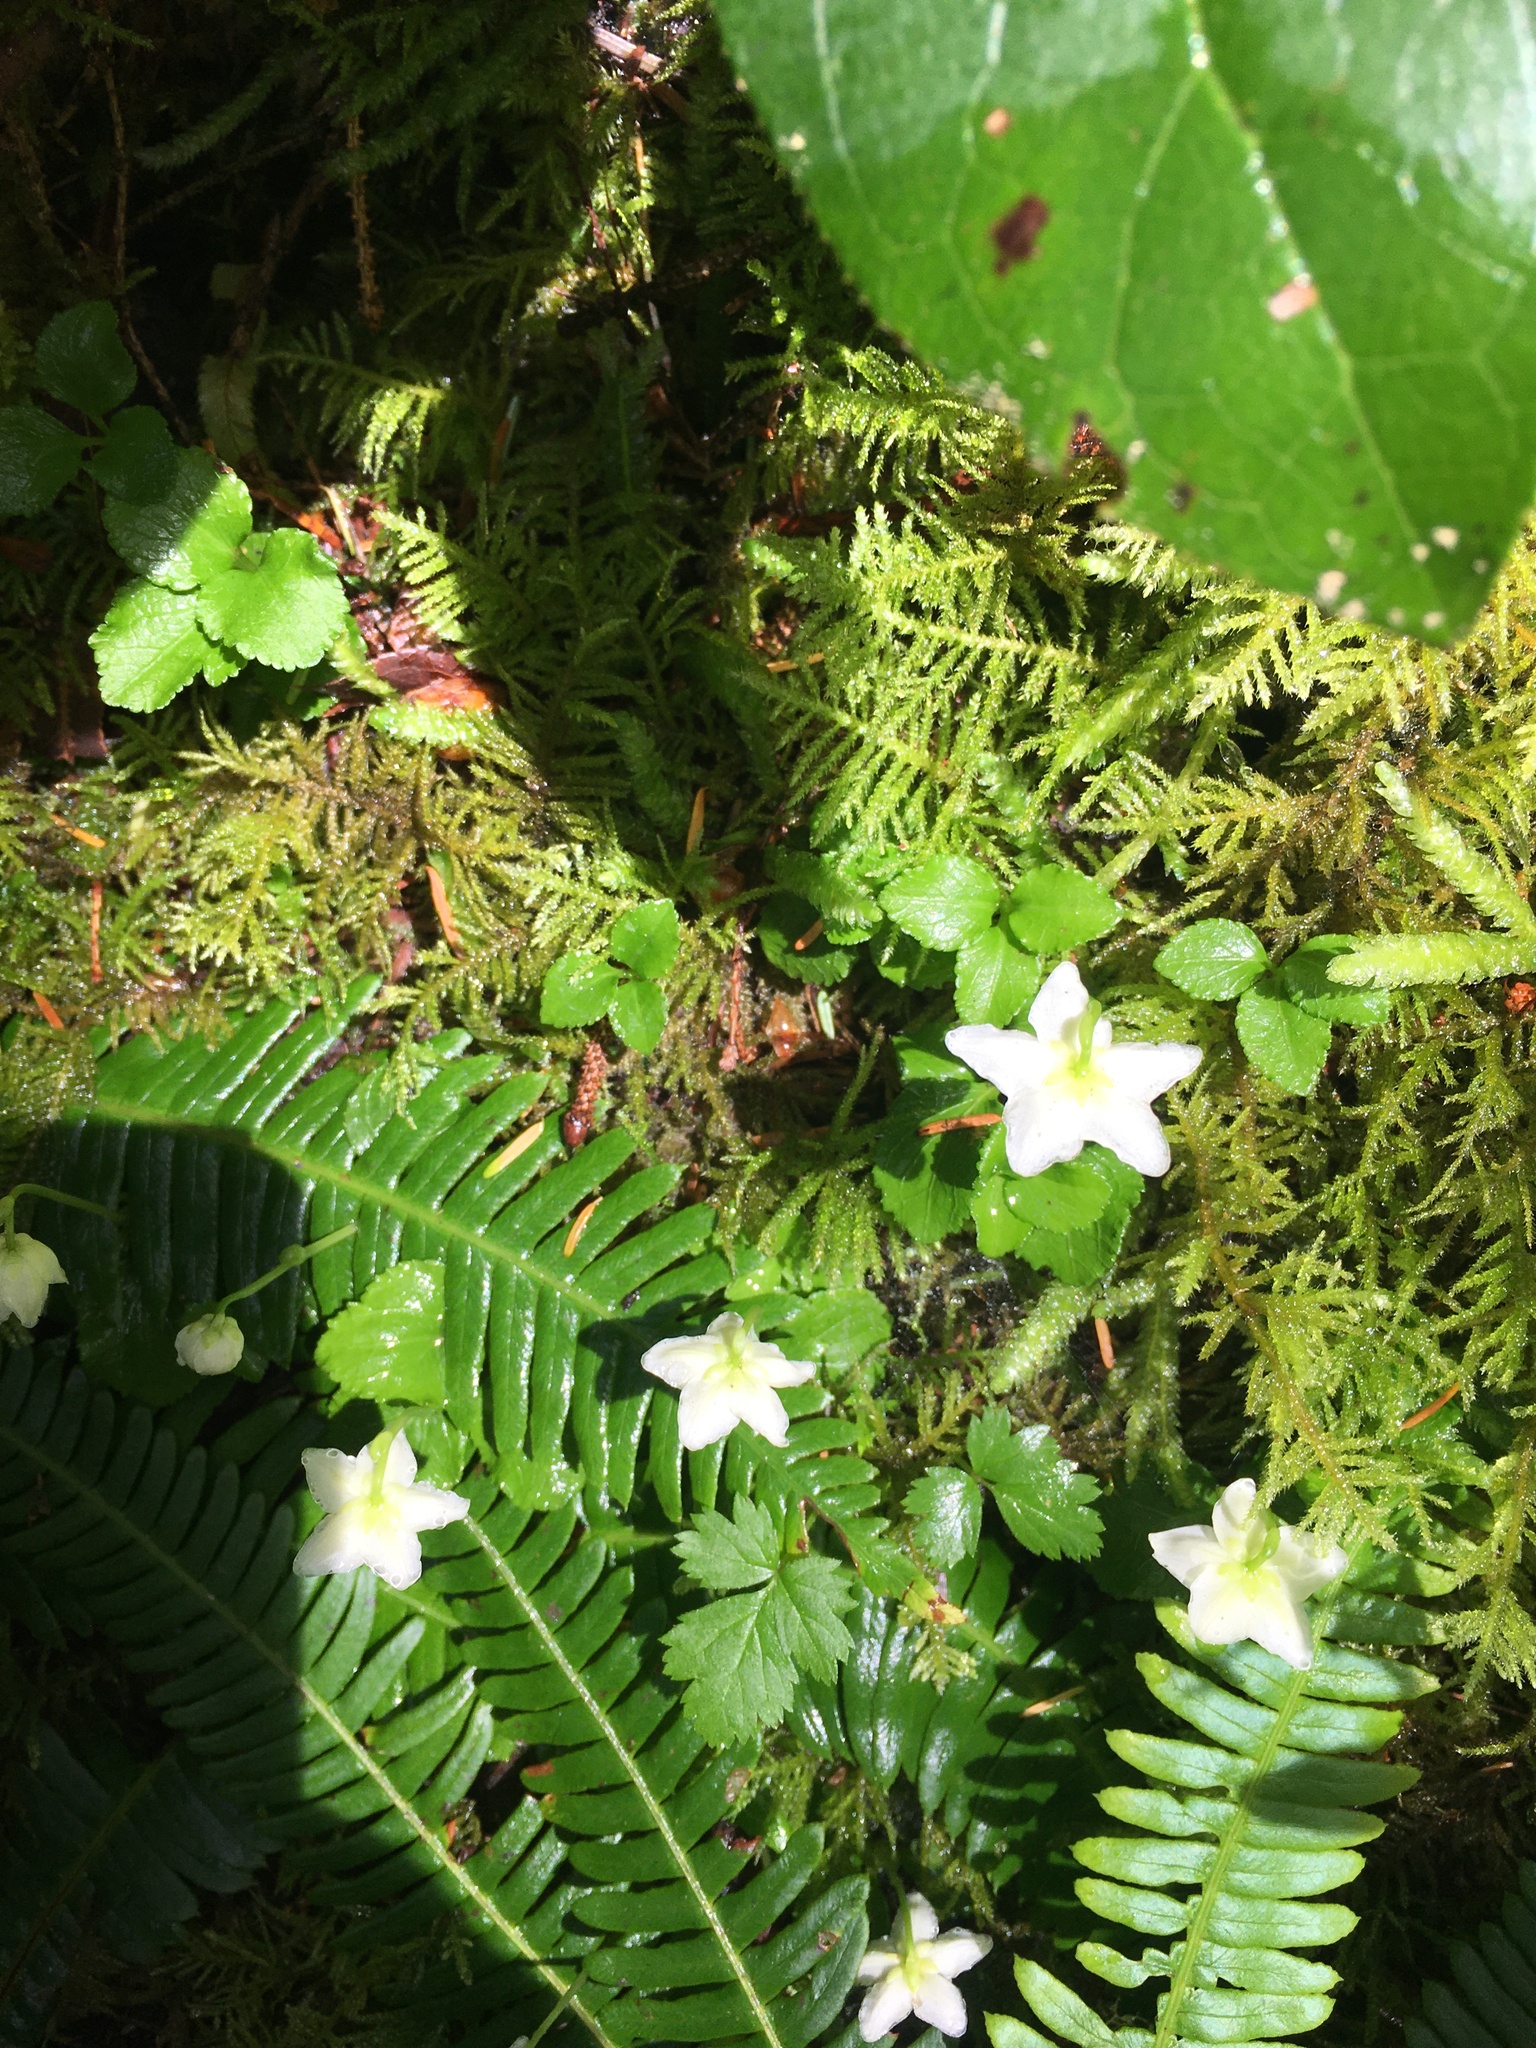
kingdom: Plantae
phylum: Tracheophyta
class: Magnoliopsida
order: Ericales
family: Ericaceae
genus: Moneses
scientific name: Moneses uniflora
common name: One-flowered wintergreen
